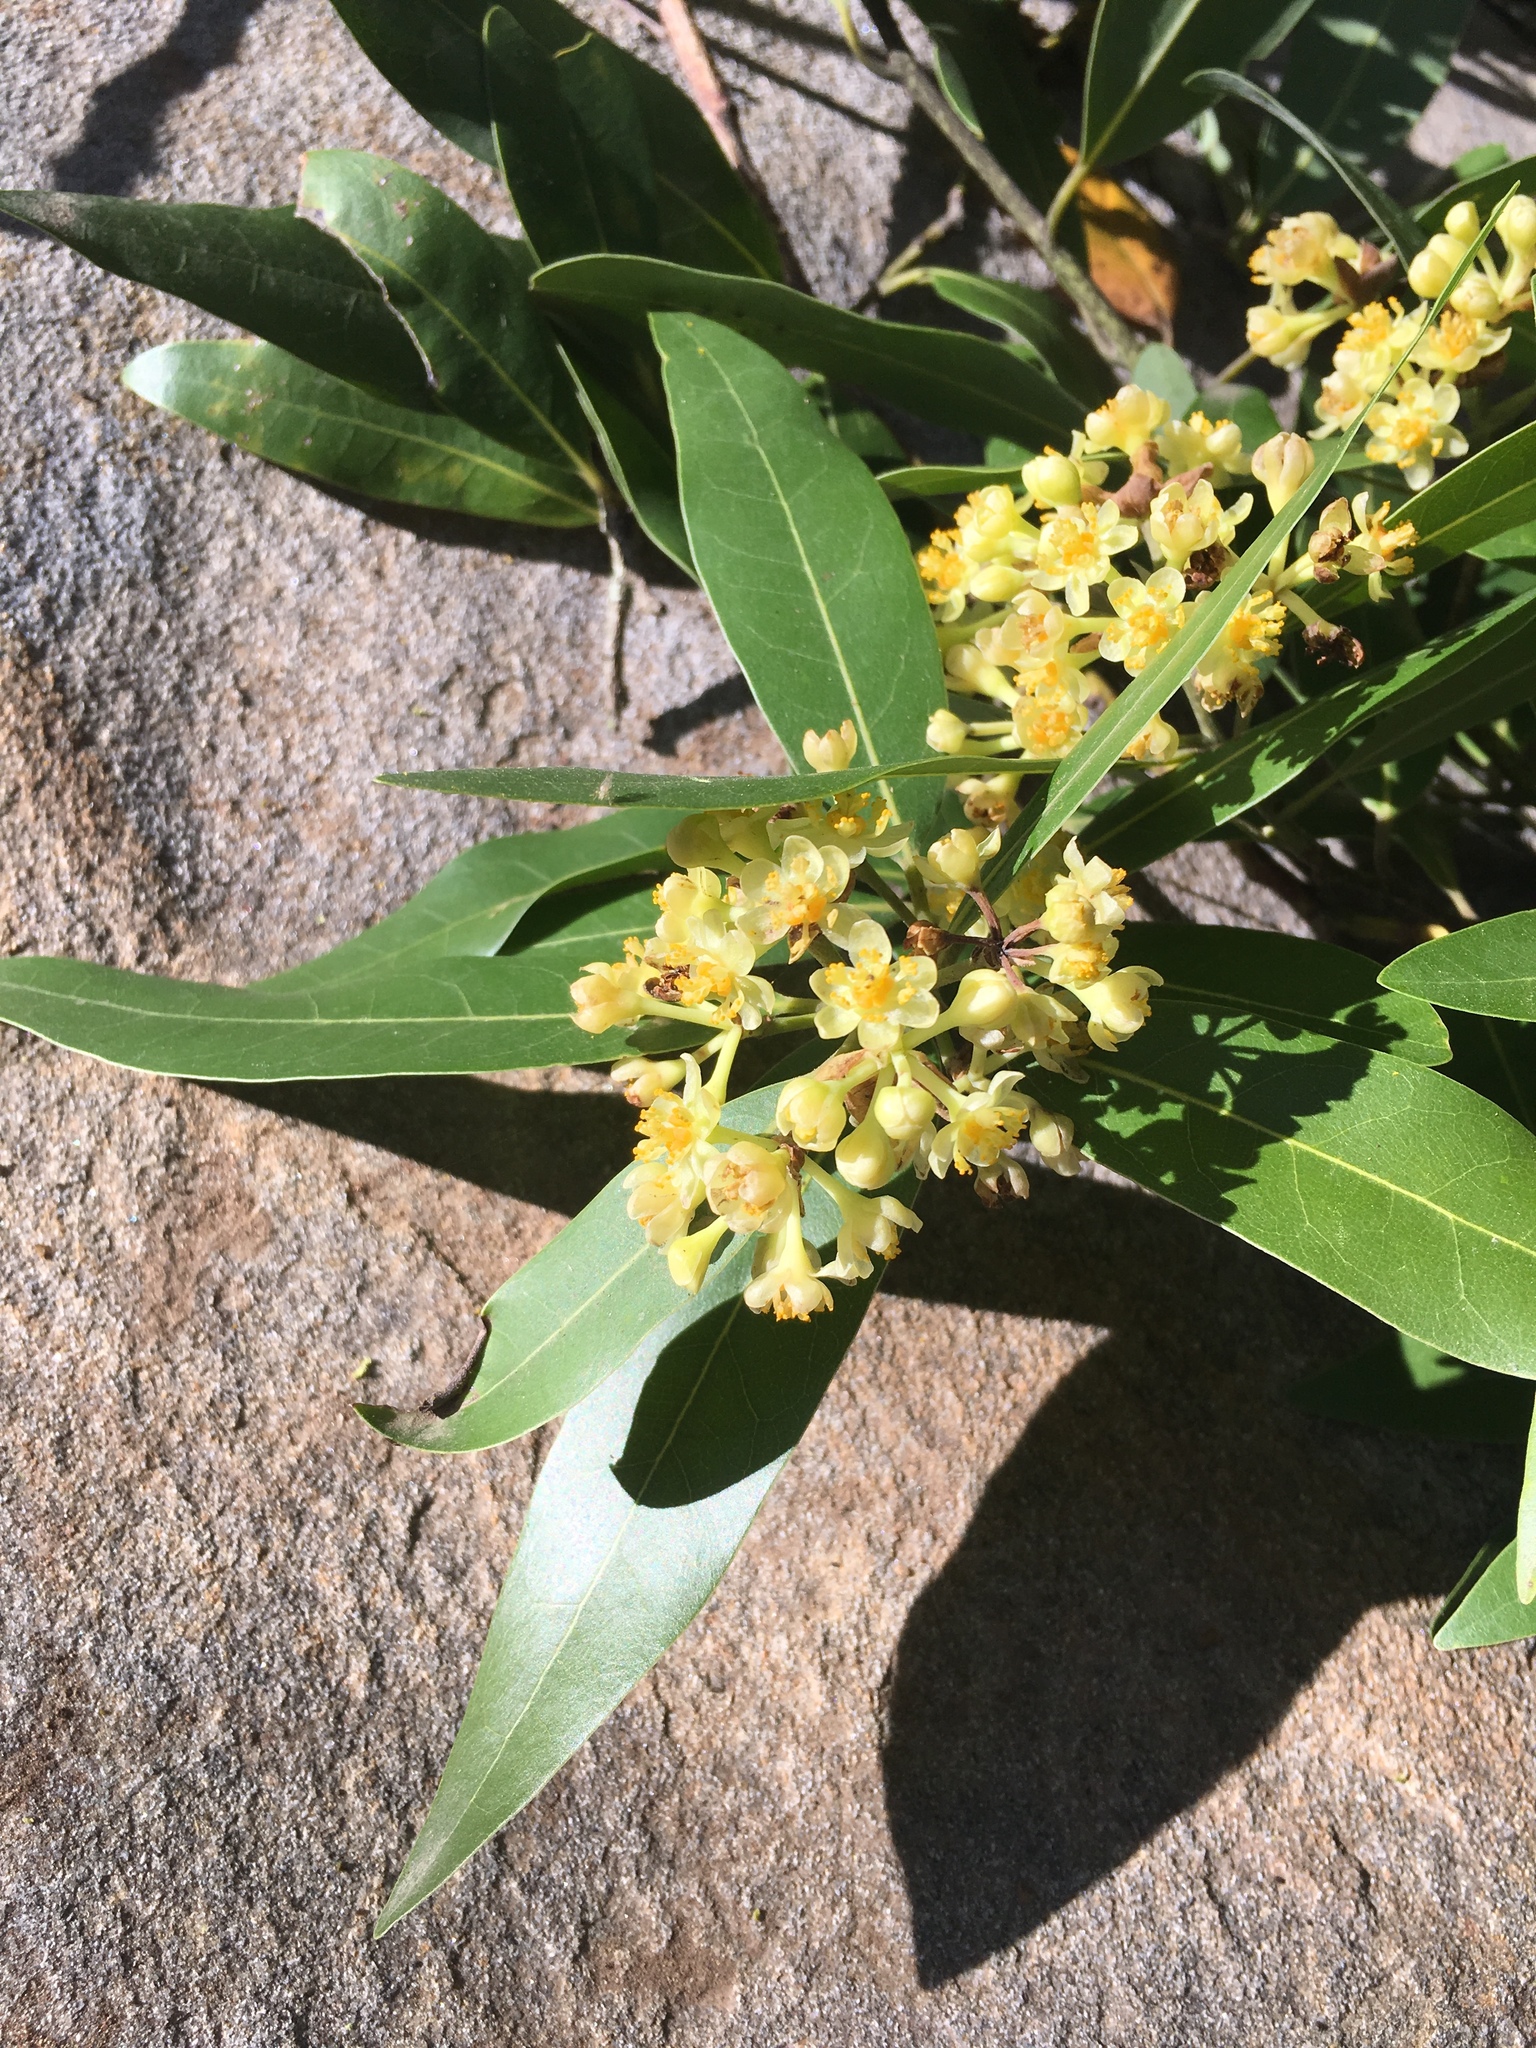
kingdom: Plantae
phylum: Tracheophyta
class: Magnoliopsida
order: Laurales
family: Lauraceae
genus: Umbellularia
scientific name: Umbellularia californica
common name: California bay
